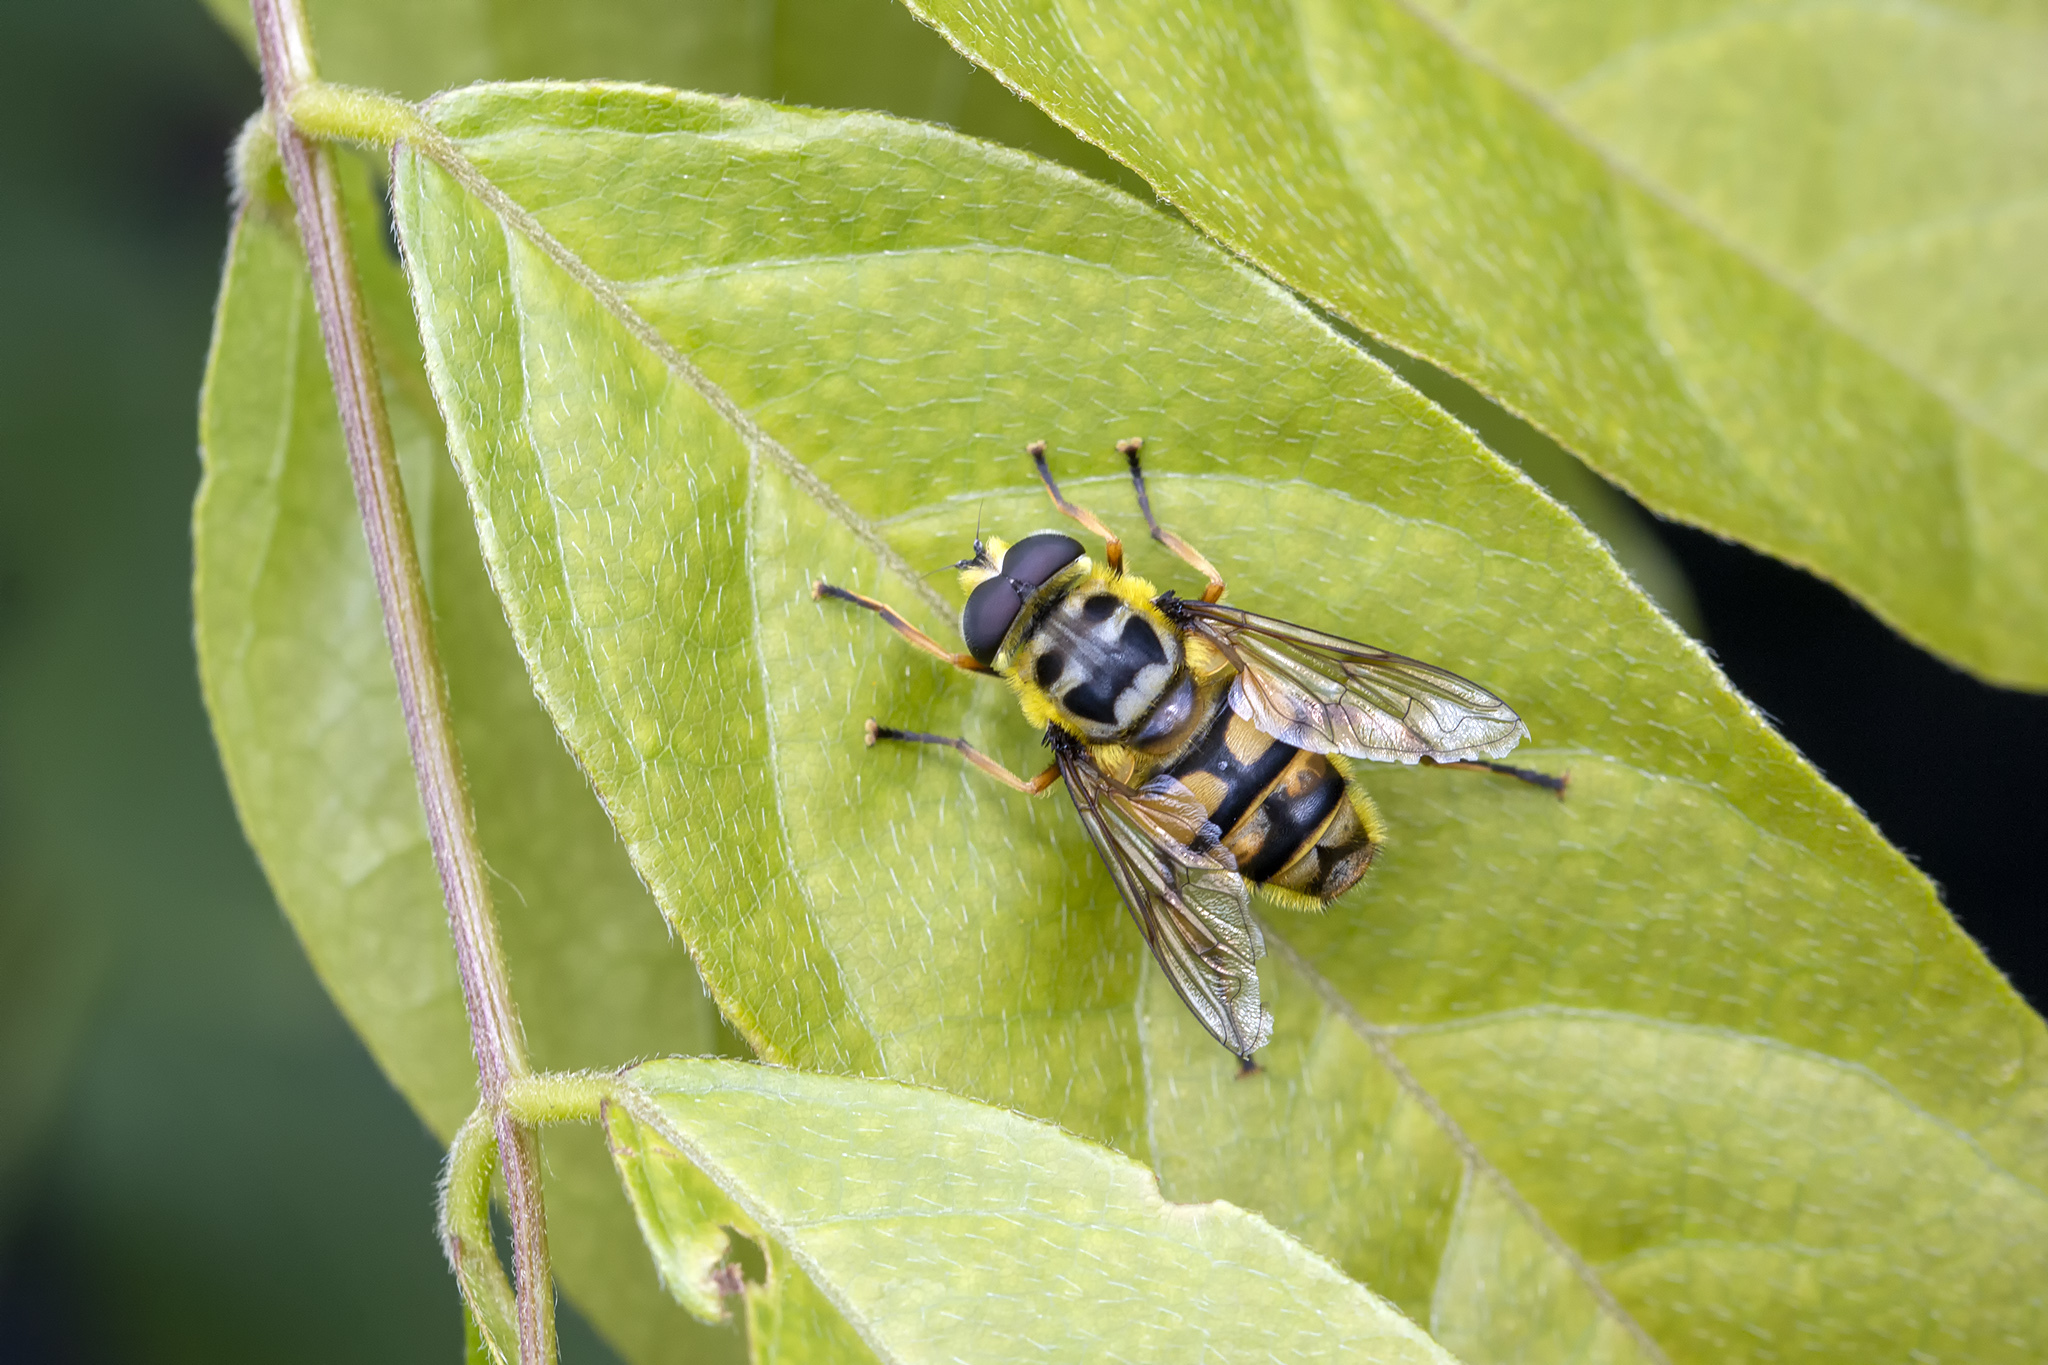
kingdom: Animalia
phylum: Arthropoda
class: Insecta
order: Diptera
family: Syrphidae
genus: Myathropa
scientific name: Myathropa florea
